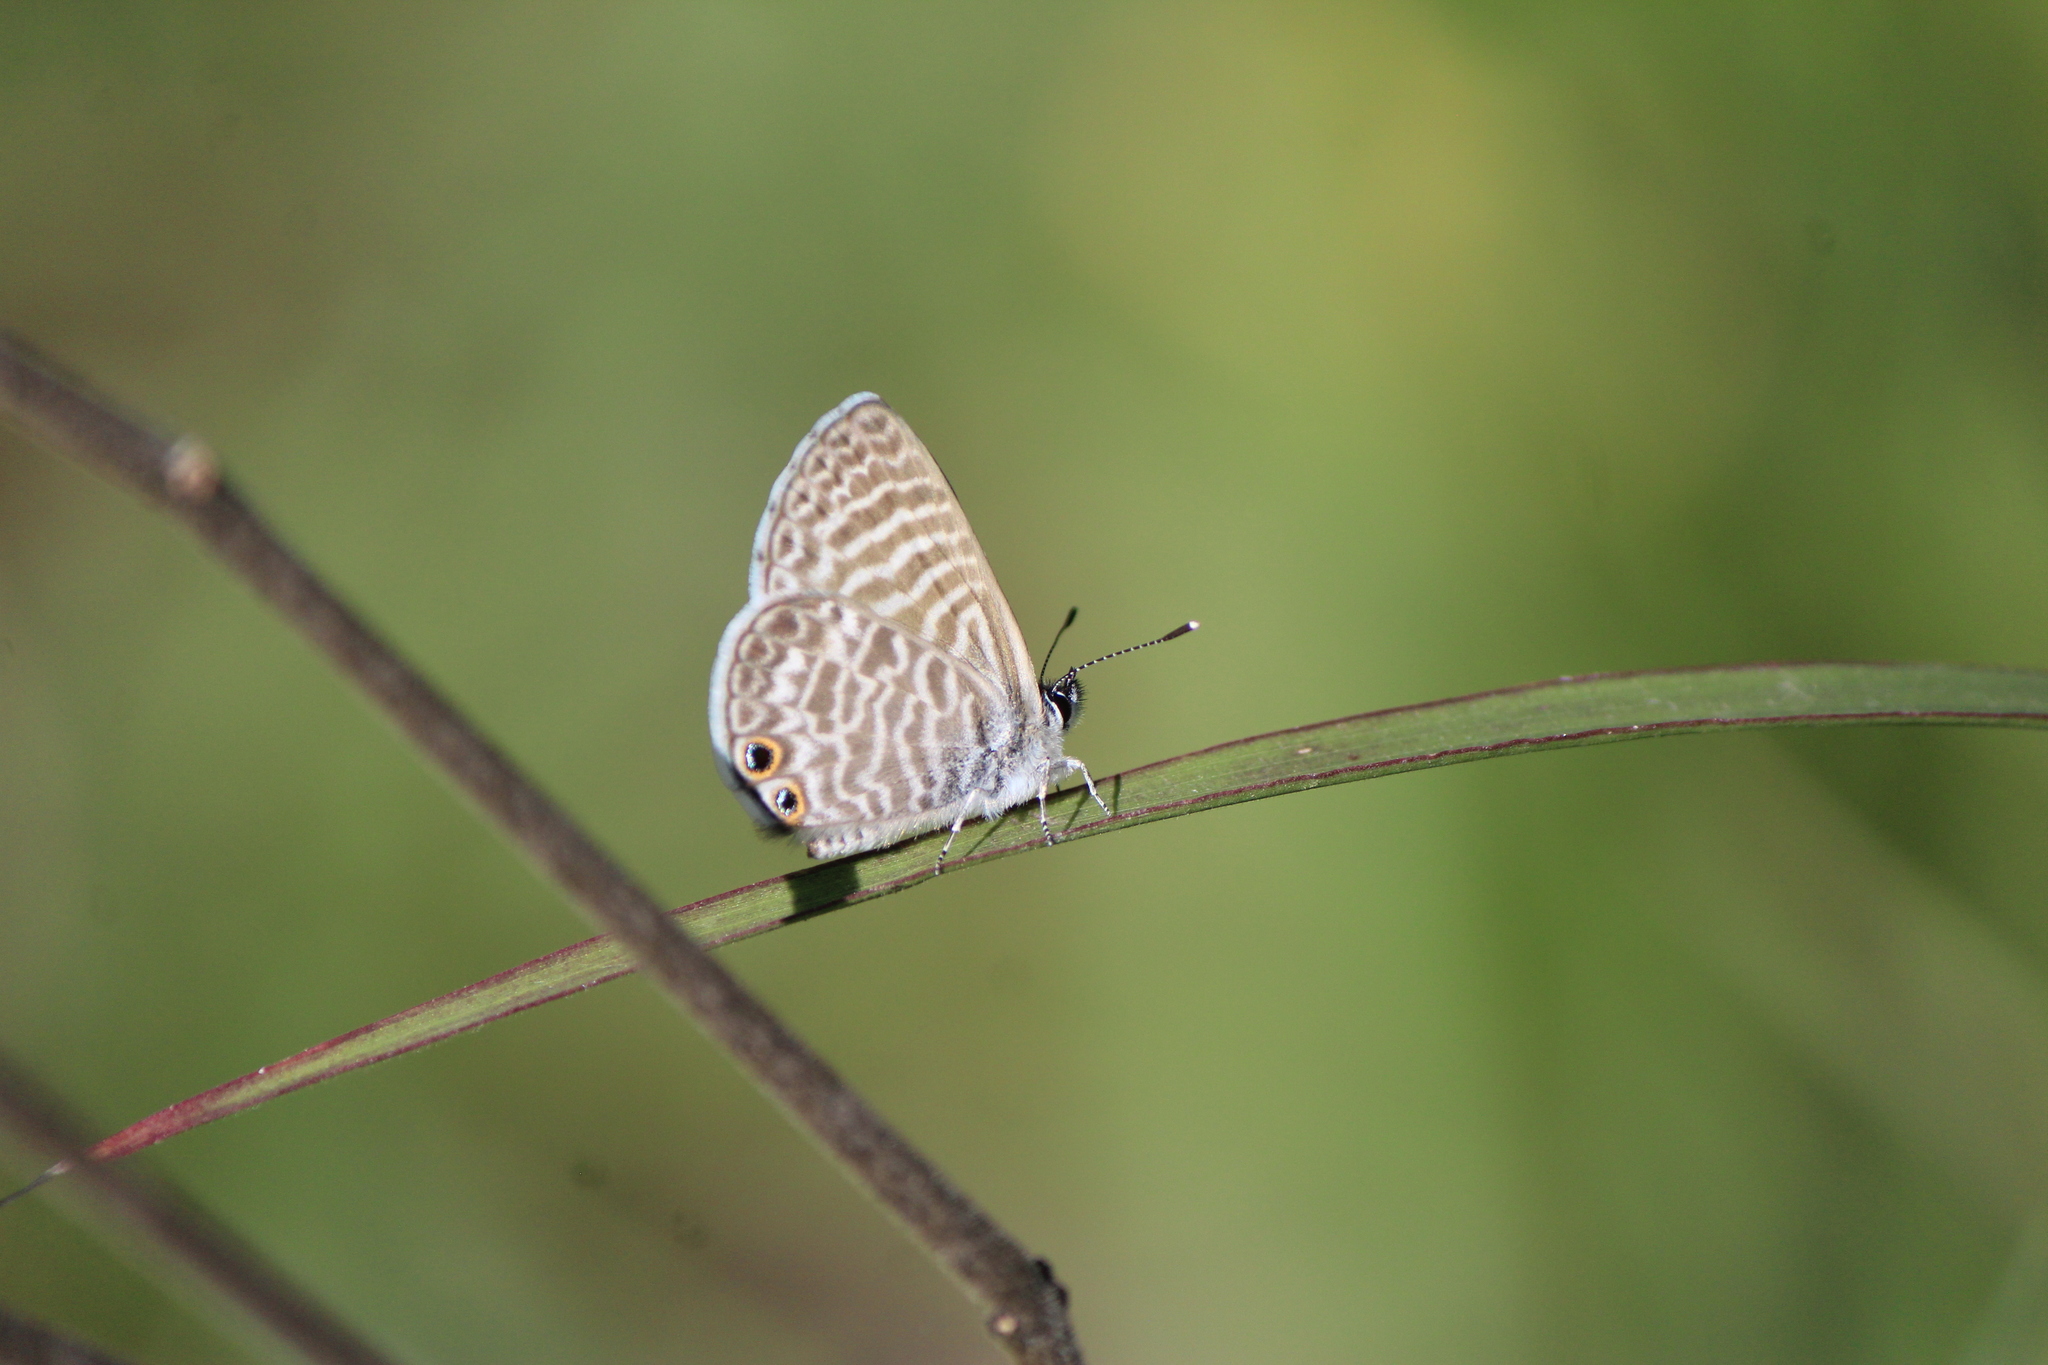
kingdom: Animalia
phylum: Arthropoda
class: Insecta
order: Lepidoptera
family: Lycaenidae
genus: Leptotes
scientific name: Leptotes marina
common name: Marine blue
